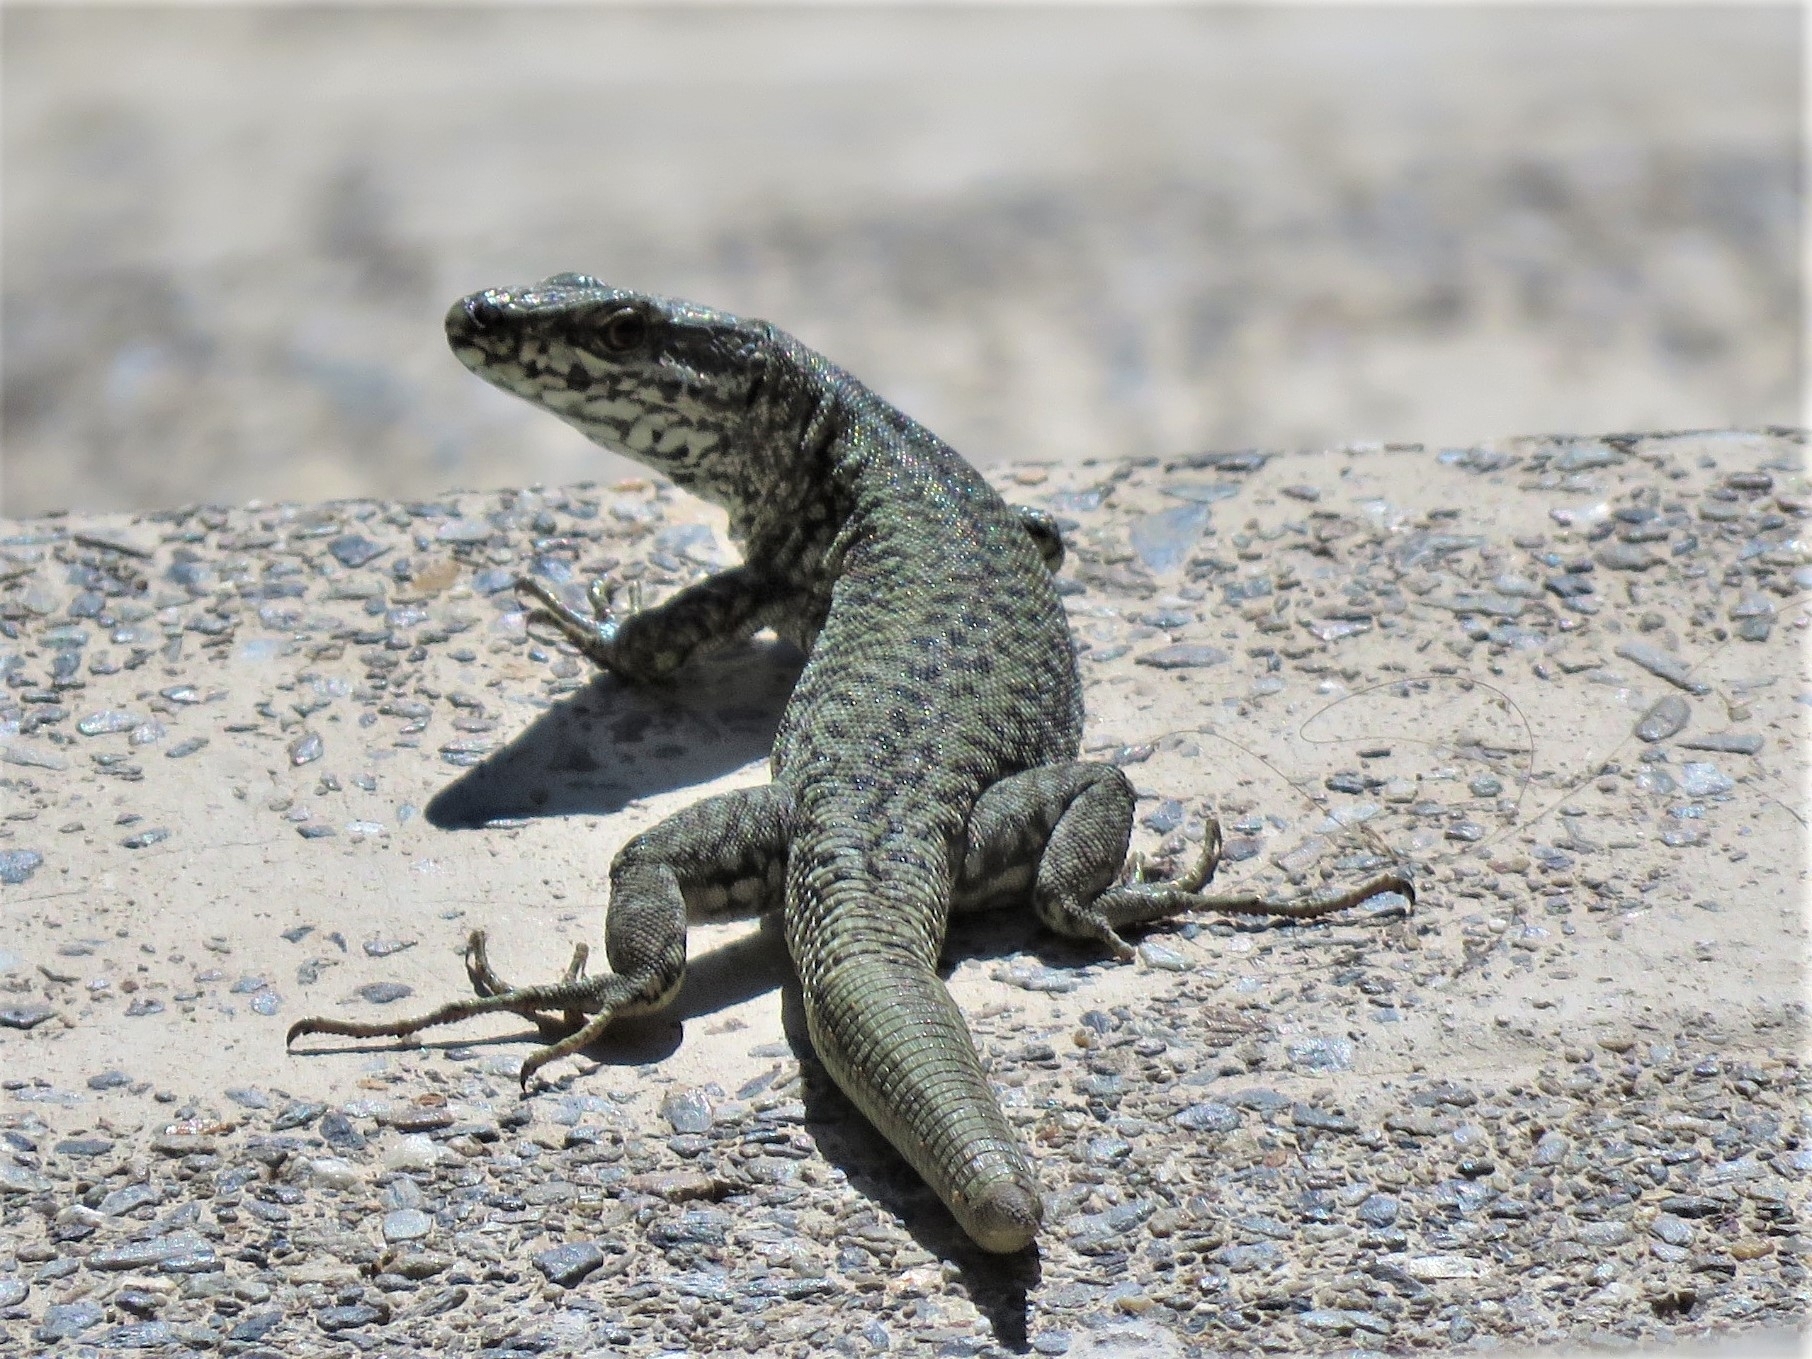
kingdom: Animalia
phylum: Chordata
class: Squamata
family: Lacertidae
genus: Podarcis
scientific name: Podarcis muralis
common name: Common wall lizard
